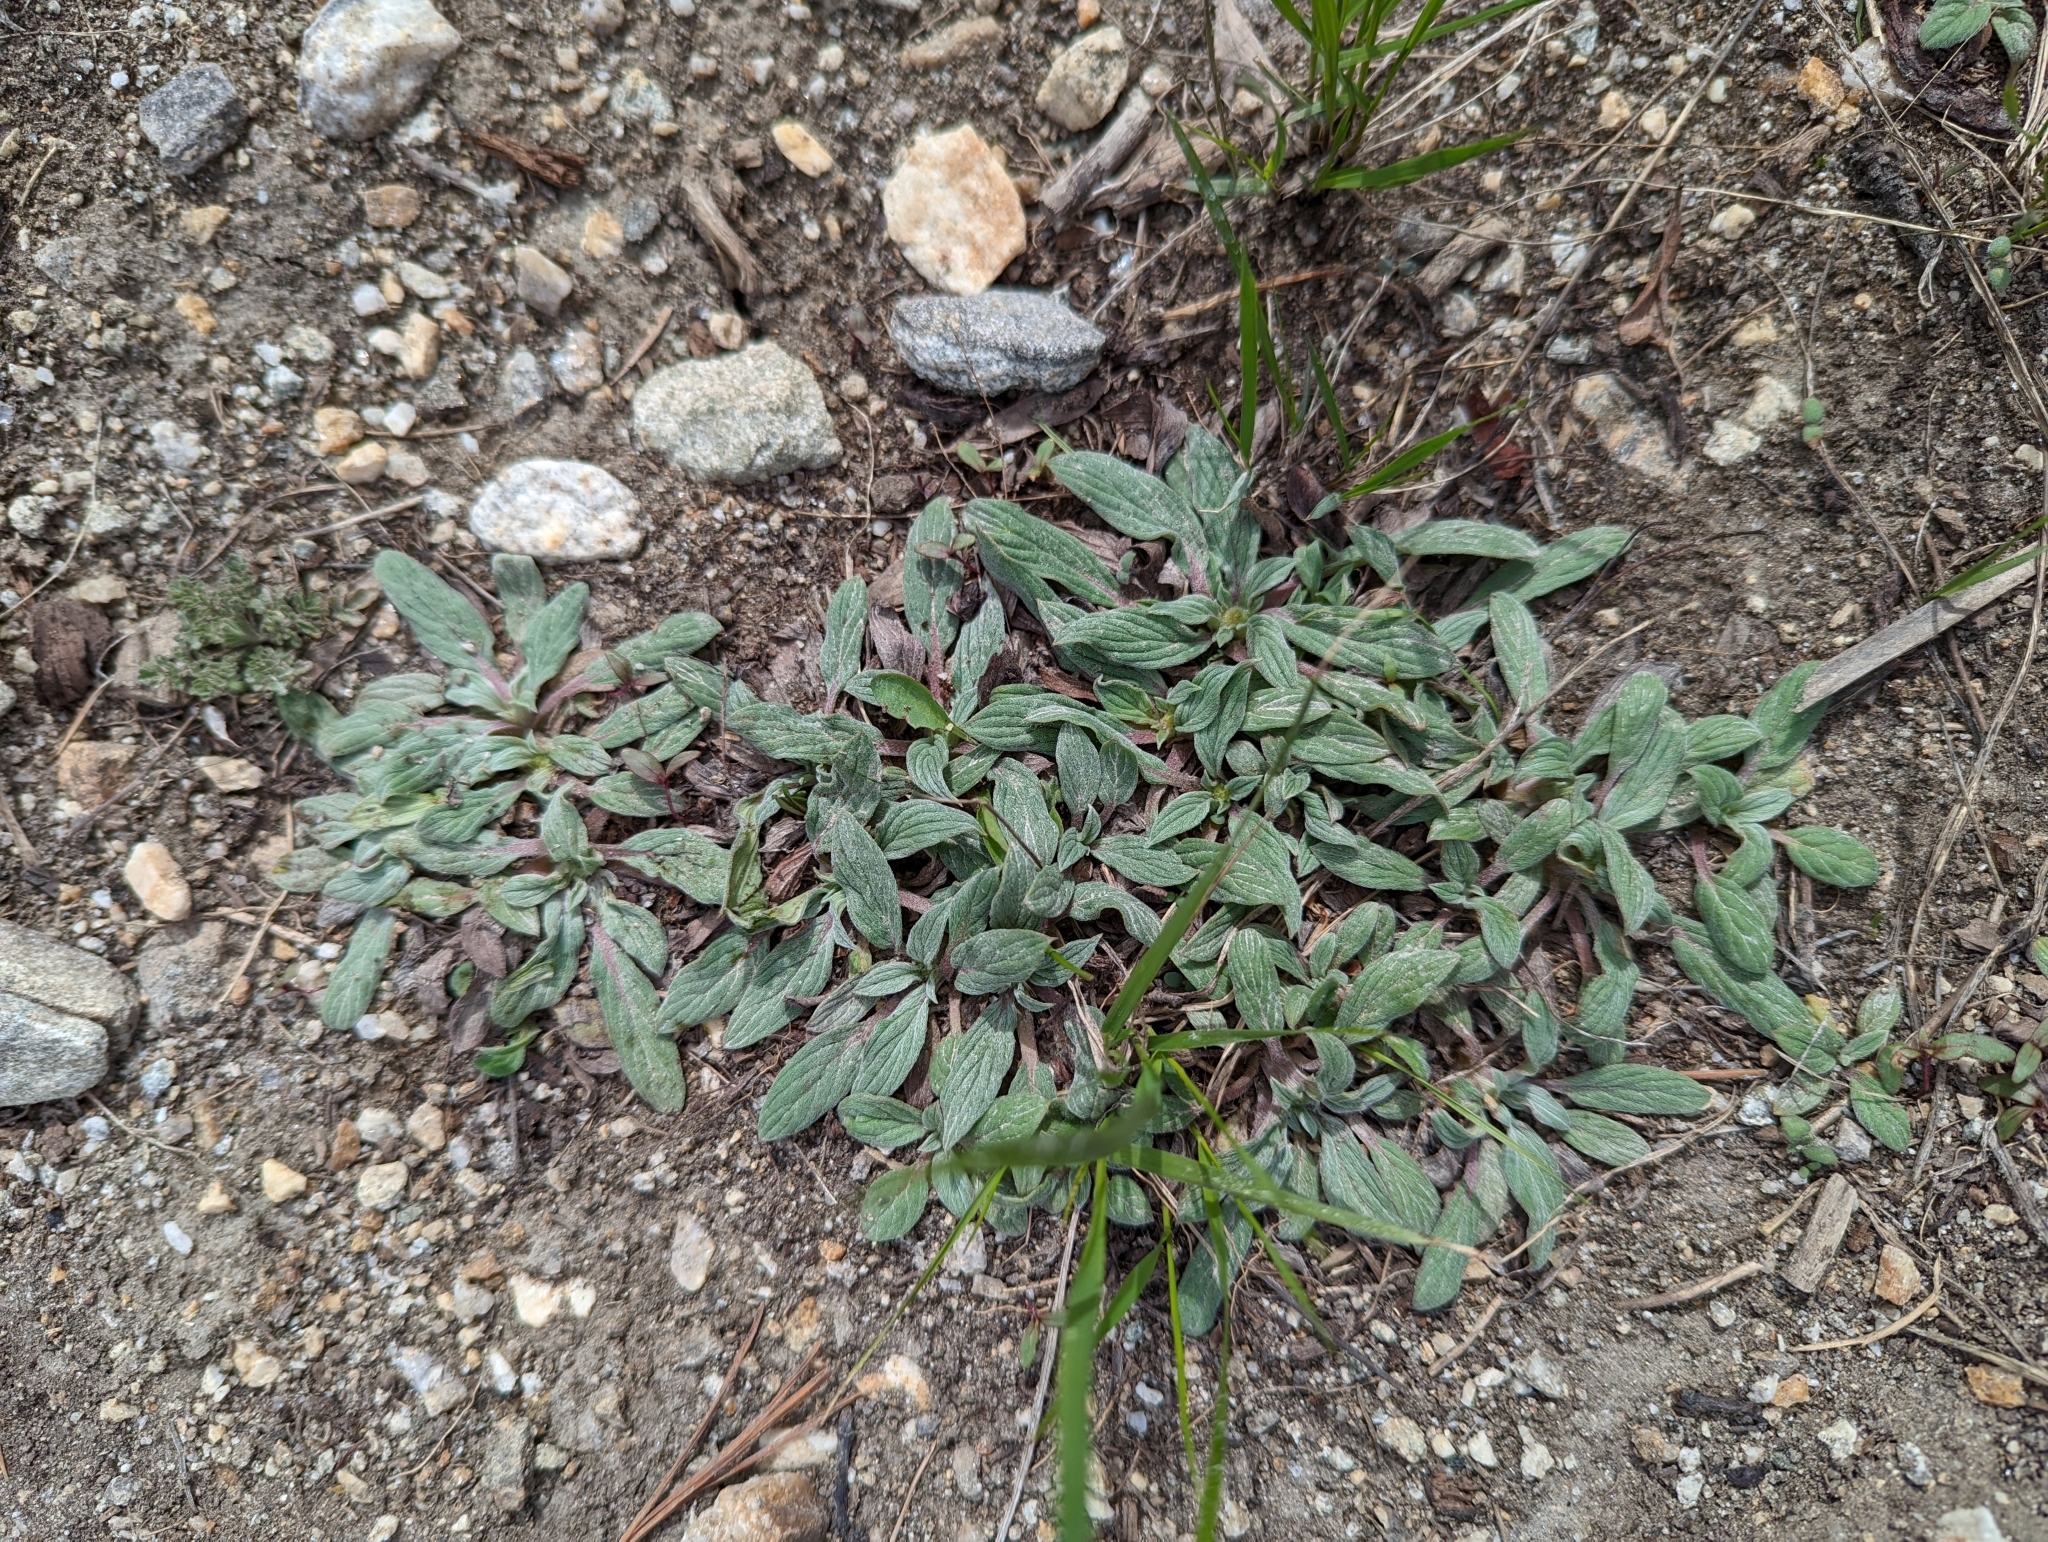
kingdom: Plantae
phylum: Tracheophyta
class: Magnoliopsida
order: Boraginales
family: Hydrophyllaceae
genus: Phacelia
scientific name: Phacelia hastata
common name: Silver-leaved phacelia
